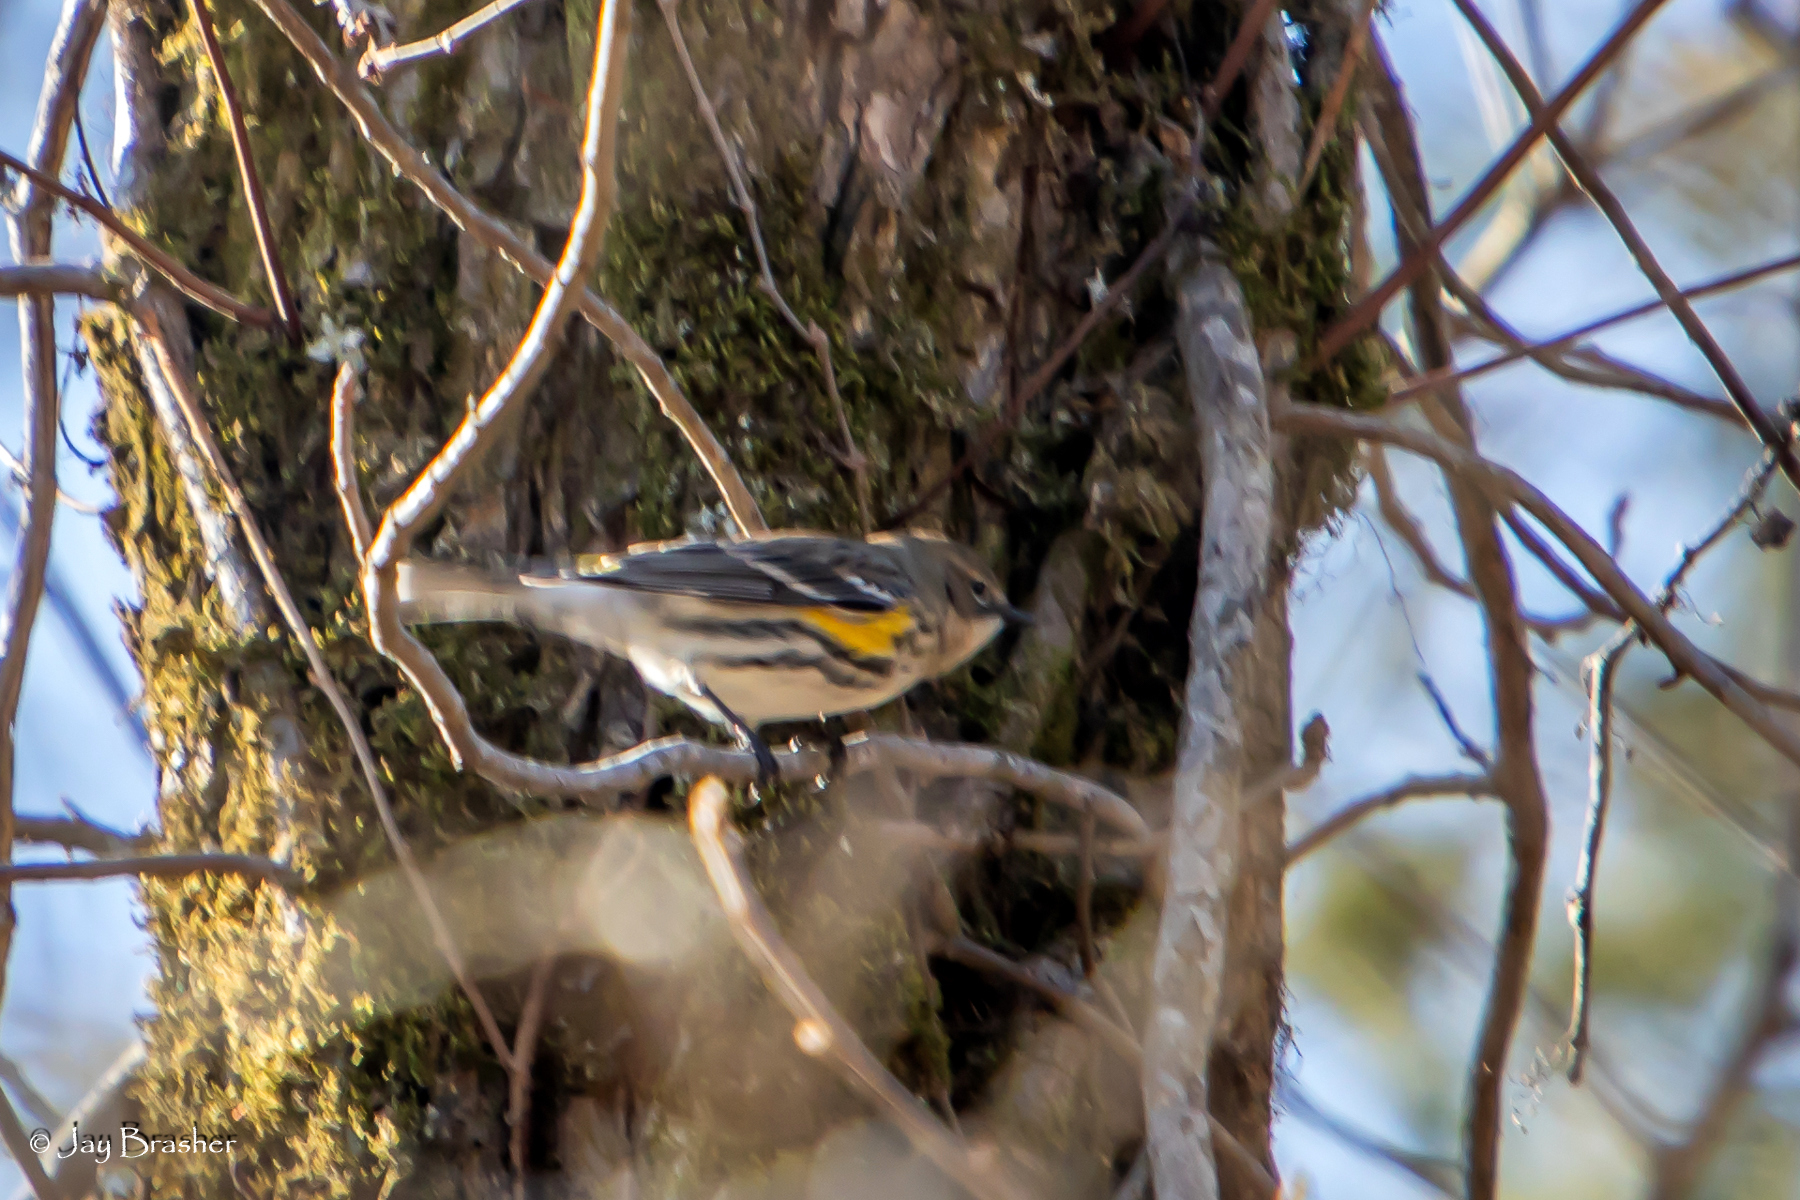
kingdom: Animalia
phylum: Chordata
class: Aves
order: Passeriformes
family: Parulidae
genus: Setophaga
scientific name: Setophaga coronata
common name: Myrtle warbler
